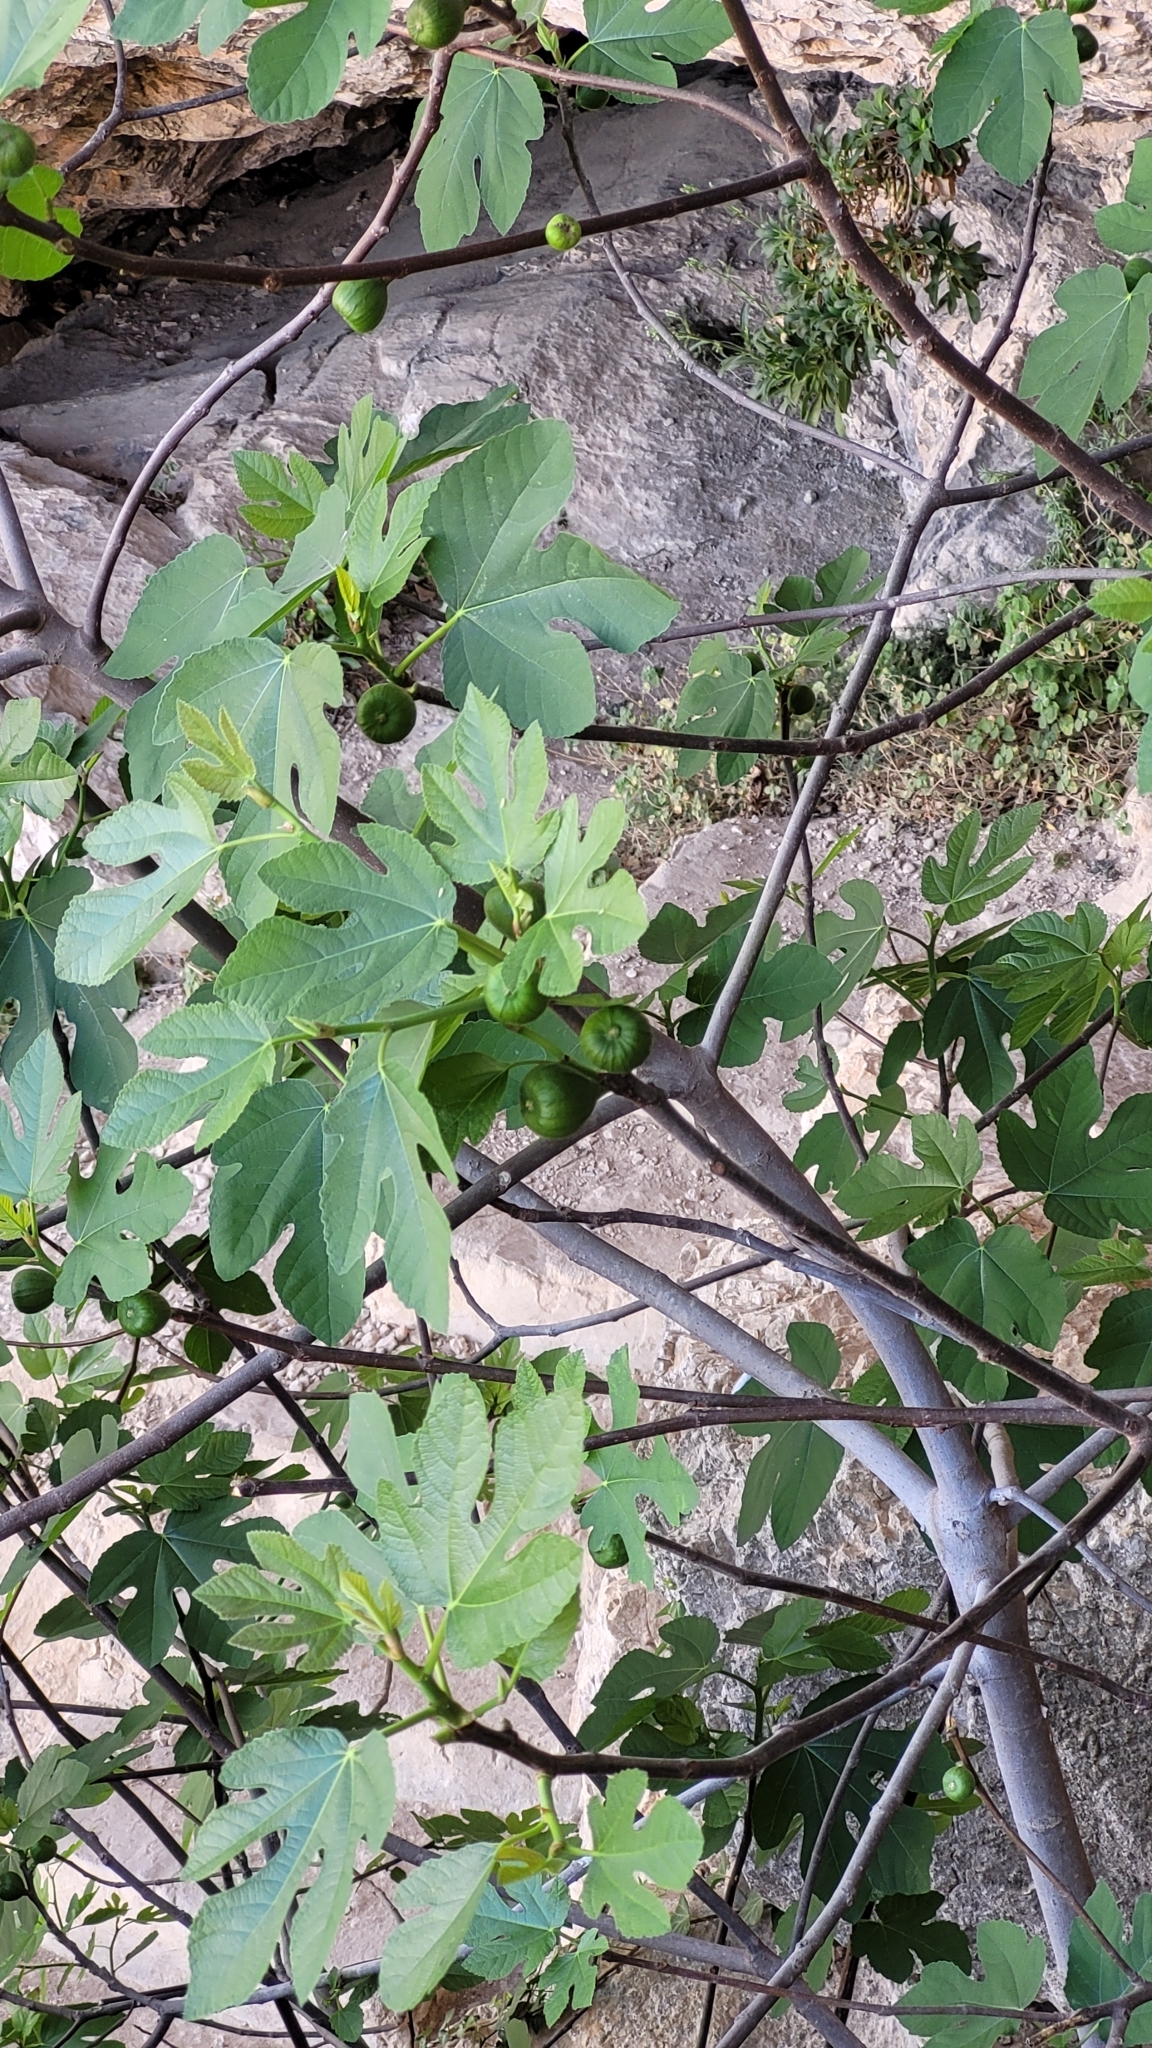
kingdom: Plantae
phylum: Tracheophyta
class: Magnoliopsida
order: Rosales
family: Moraceae
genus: Ficus
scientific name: Ficus carica
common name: Fig
